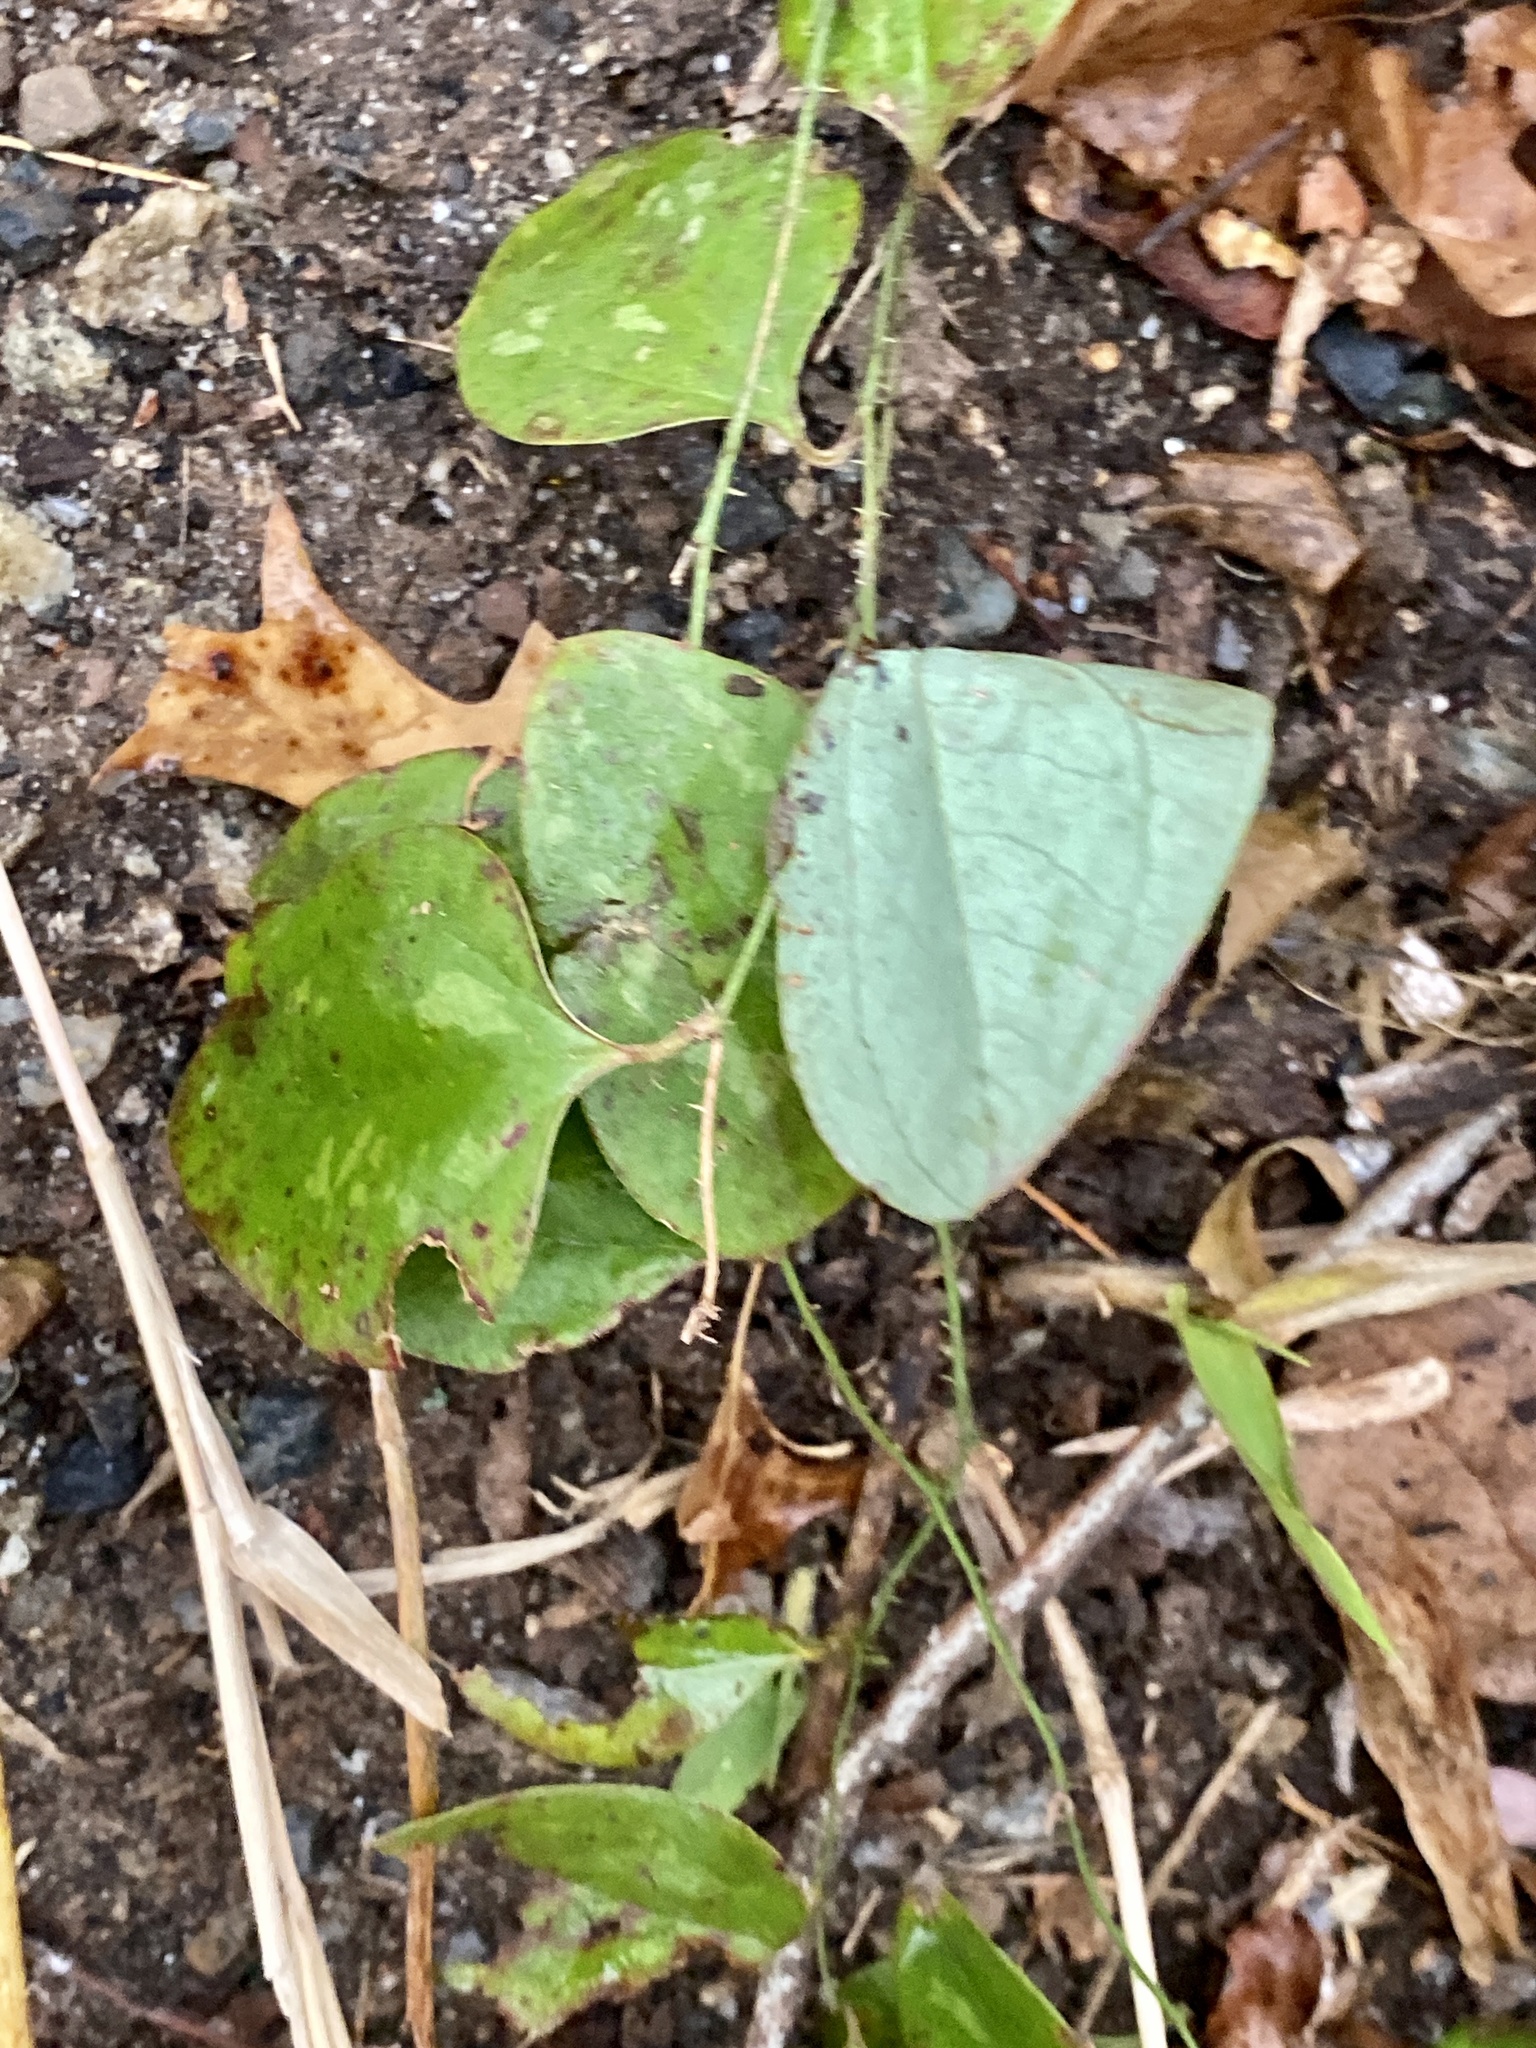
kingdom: Plantae
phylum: Tracheophyta
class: Liliopsida
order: Liliales
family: Smilacaceae
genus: Smilax
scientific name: Smilax glauca
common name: Cat greenbrier
